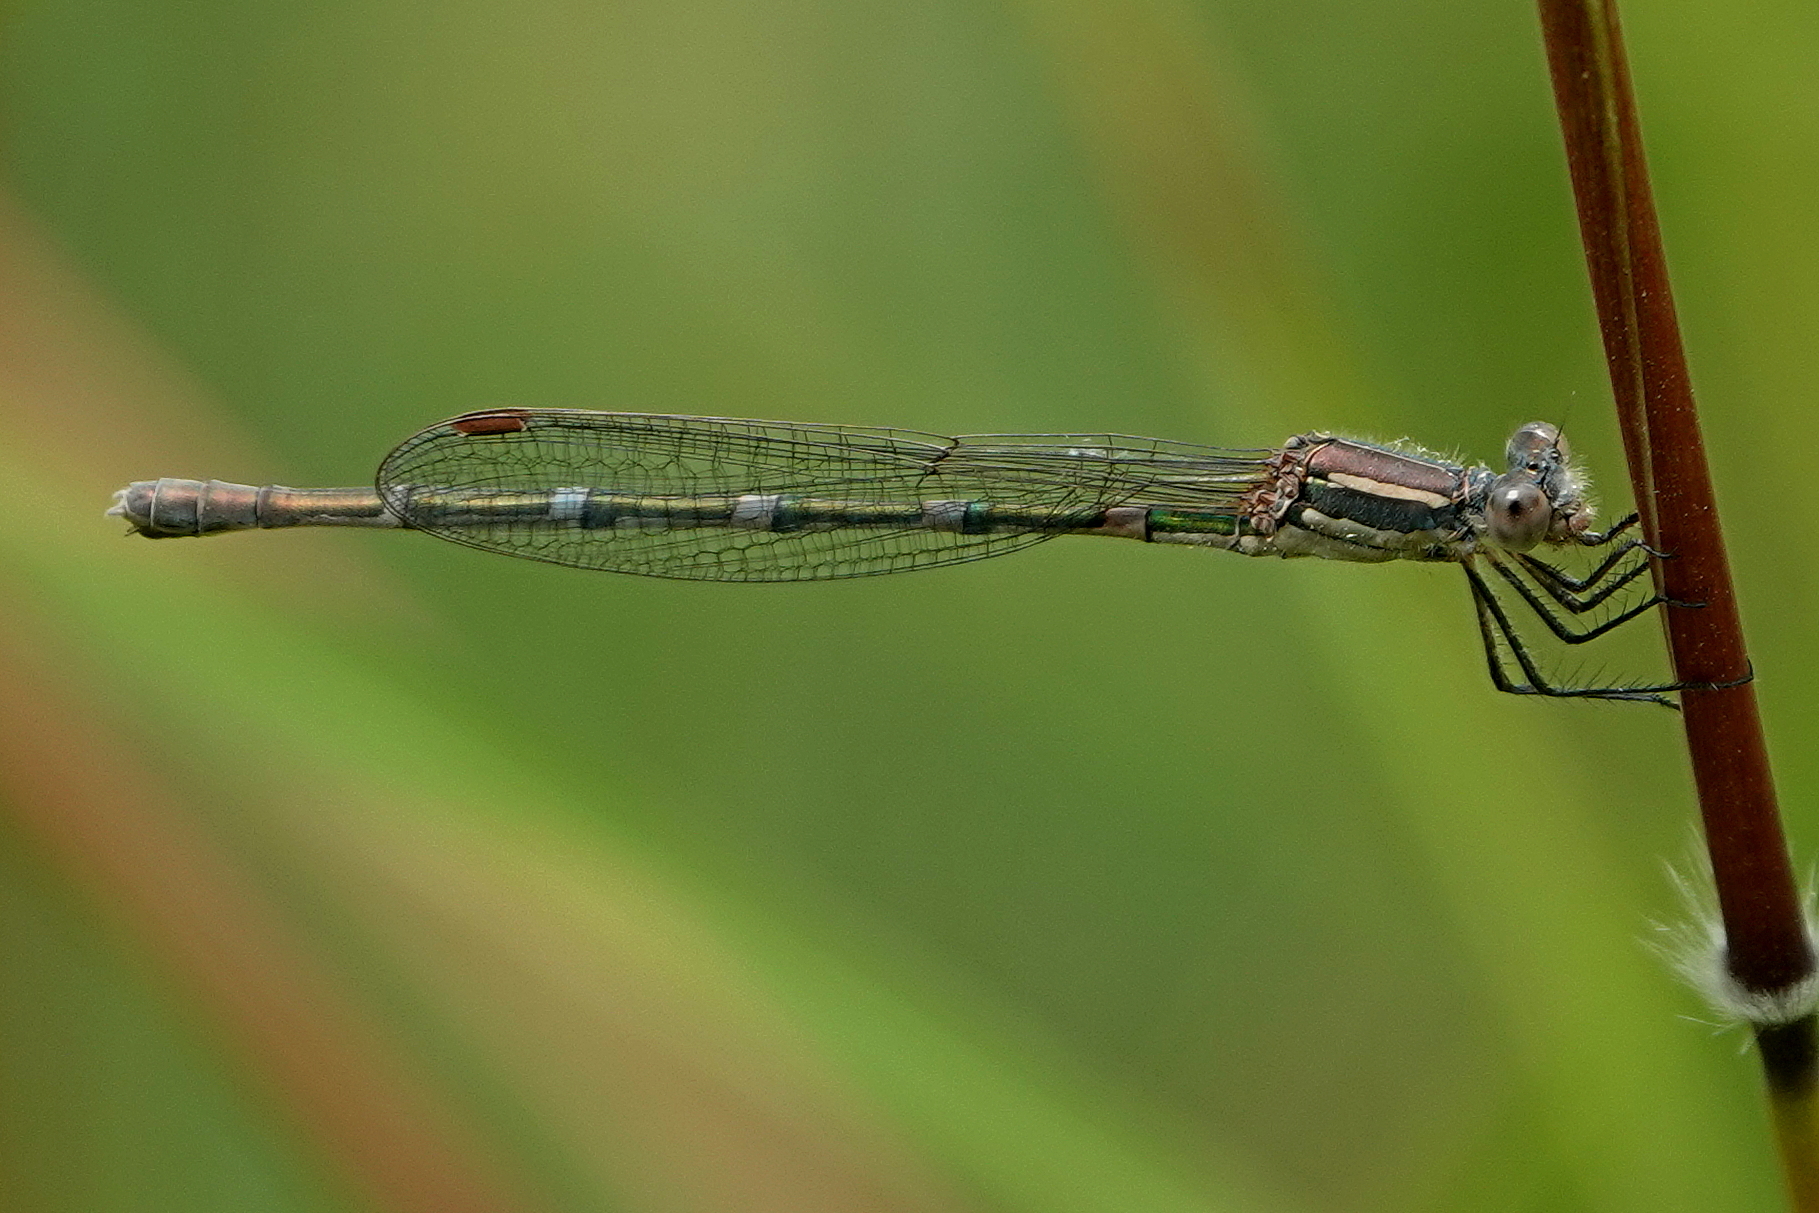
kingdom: Animalia
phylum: Arthropoda
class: Insecta
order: Odonata
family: Lestidae
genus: Austrolestes
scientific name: Austrolestes leda
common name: Wandering ringtail
